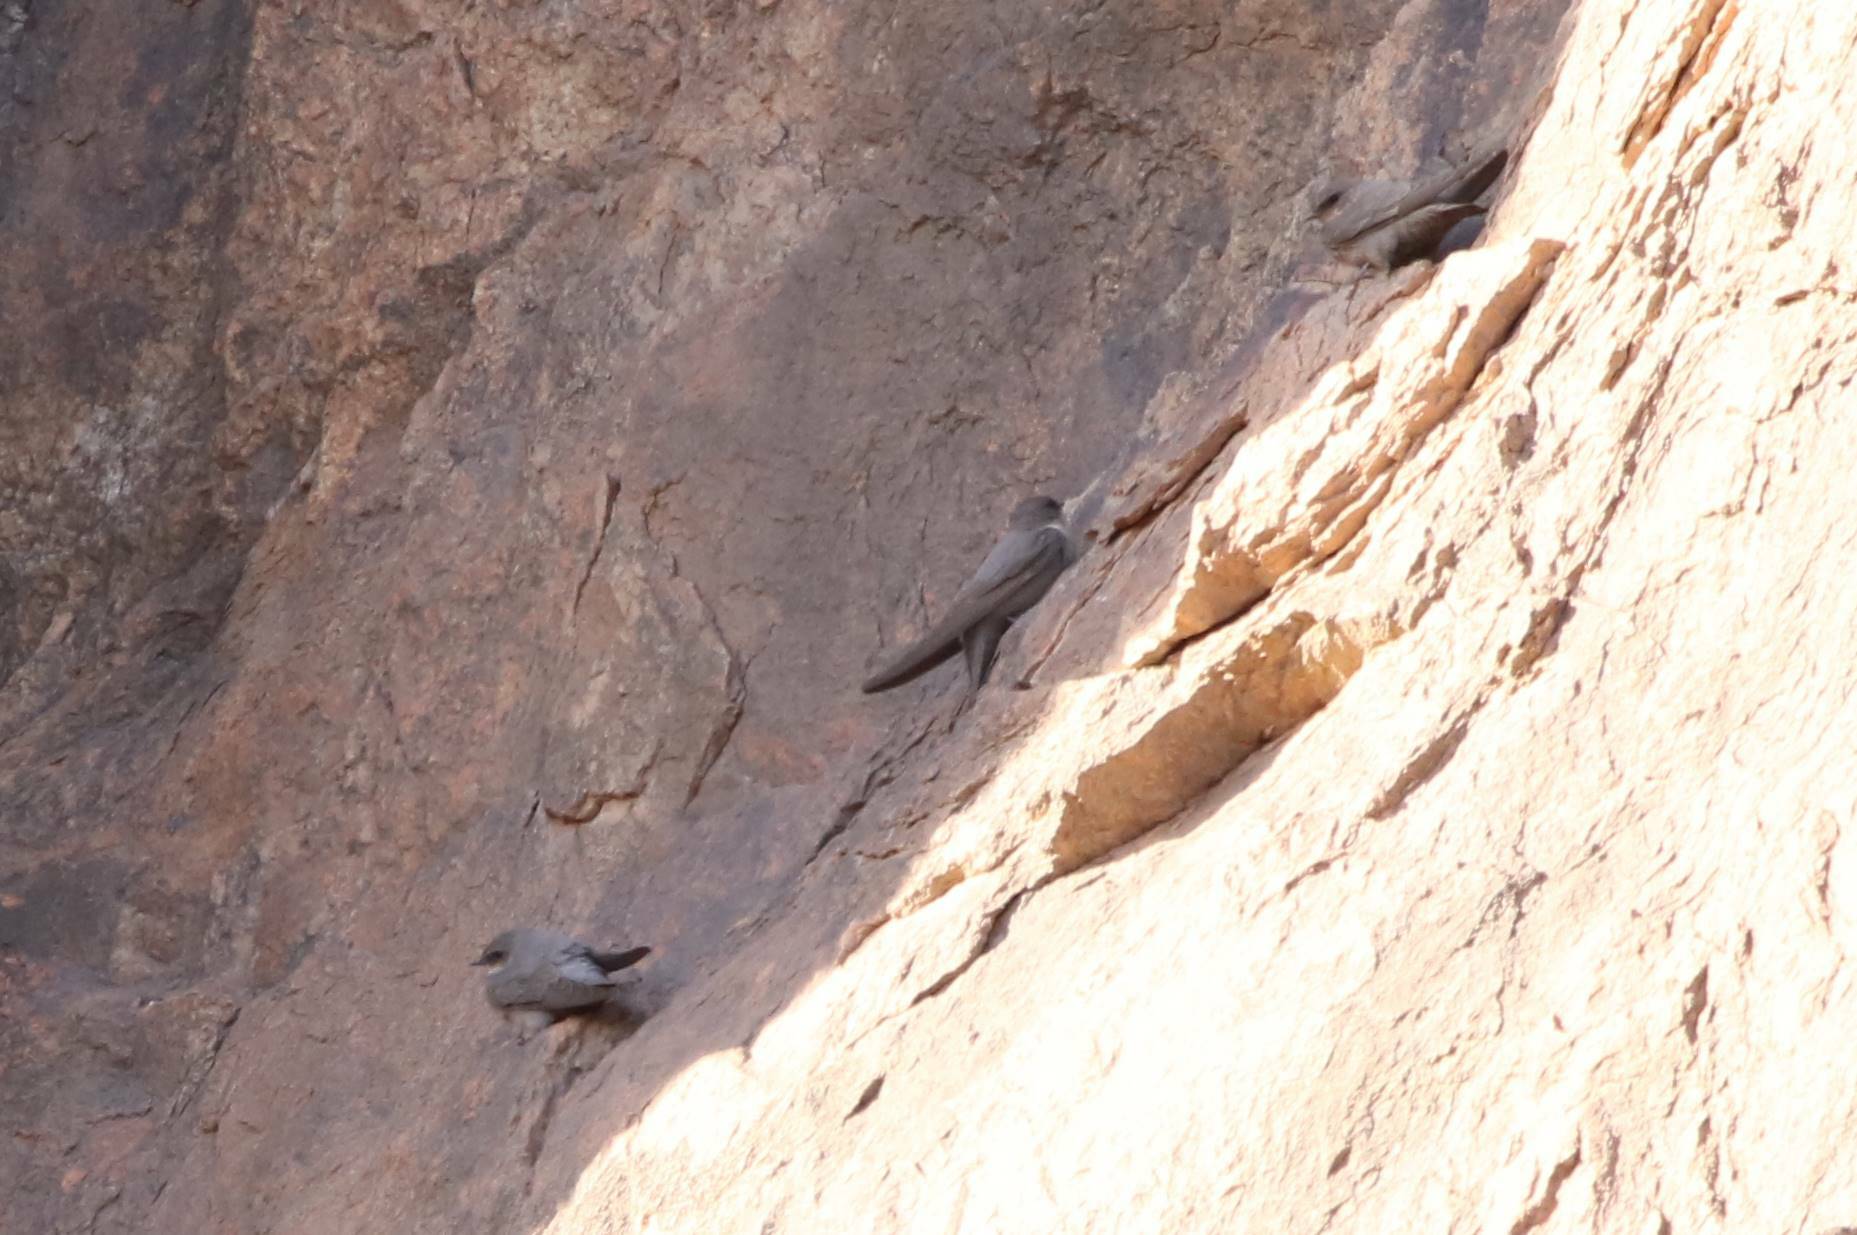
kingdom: Animalia
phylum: Chordata
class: Aves
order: Passeriformes
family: Hirundinidae
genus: Ptyonoprogne
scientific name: Ptyonoprogne fuligula
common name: Rock martin
